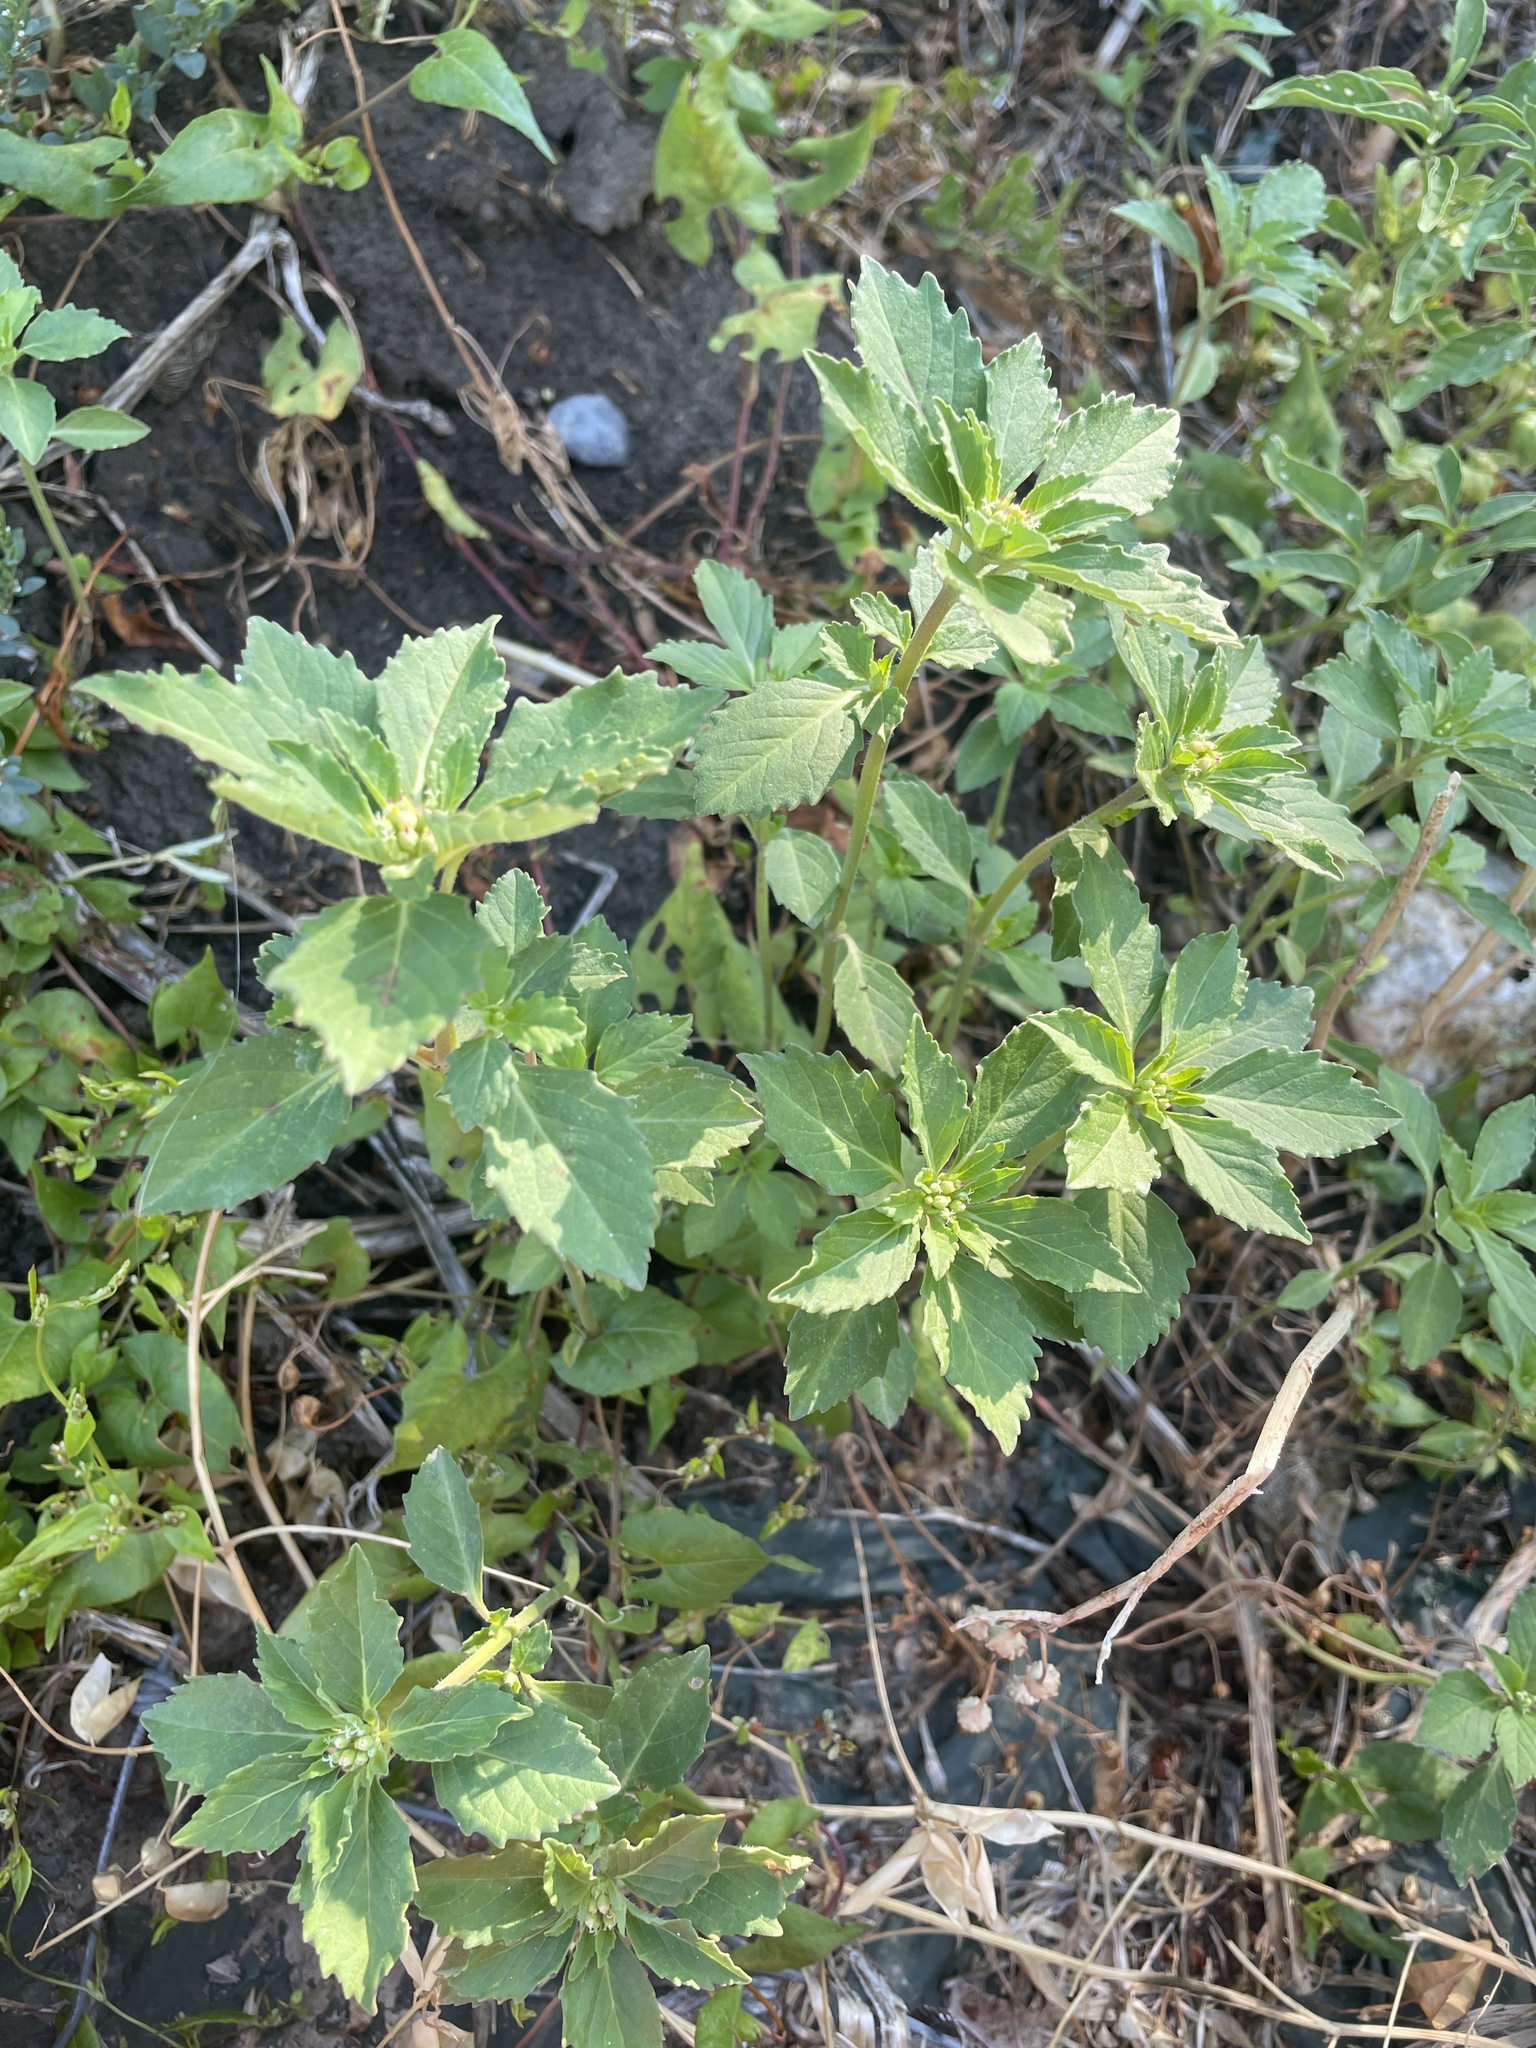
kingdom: Plantae
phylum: Tracheophyta
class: Magnoliopsida
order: Malpighiales
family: Euphorbiaceae
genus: Euphorbia
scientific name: Euphorbia davidii
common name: David's spurge
